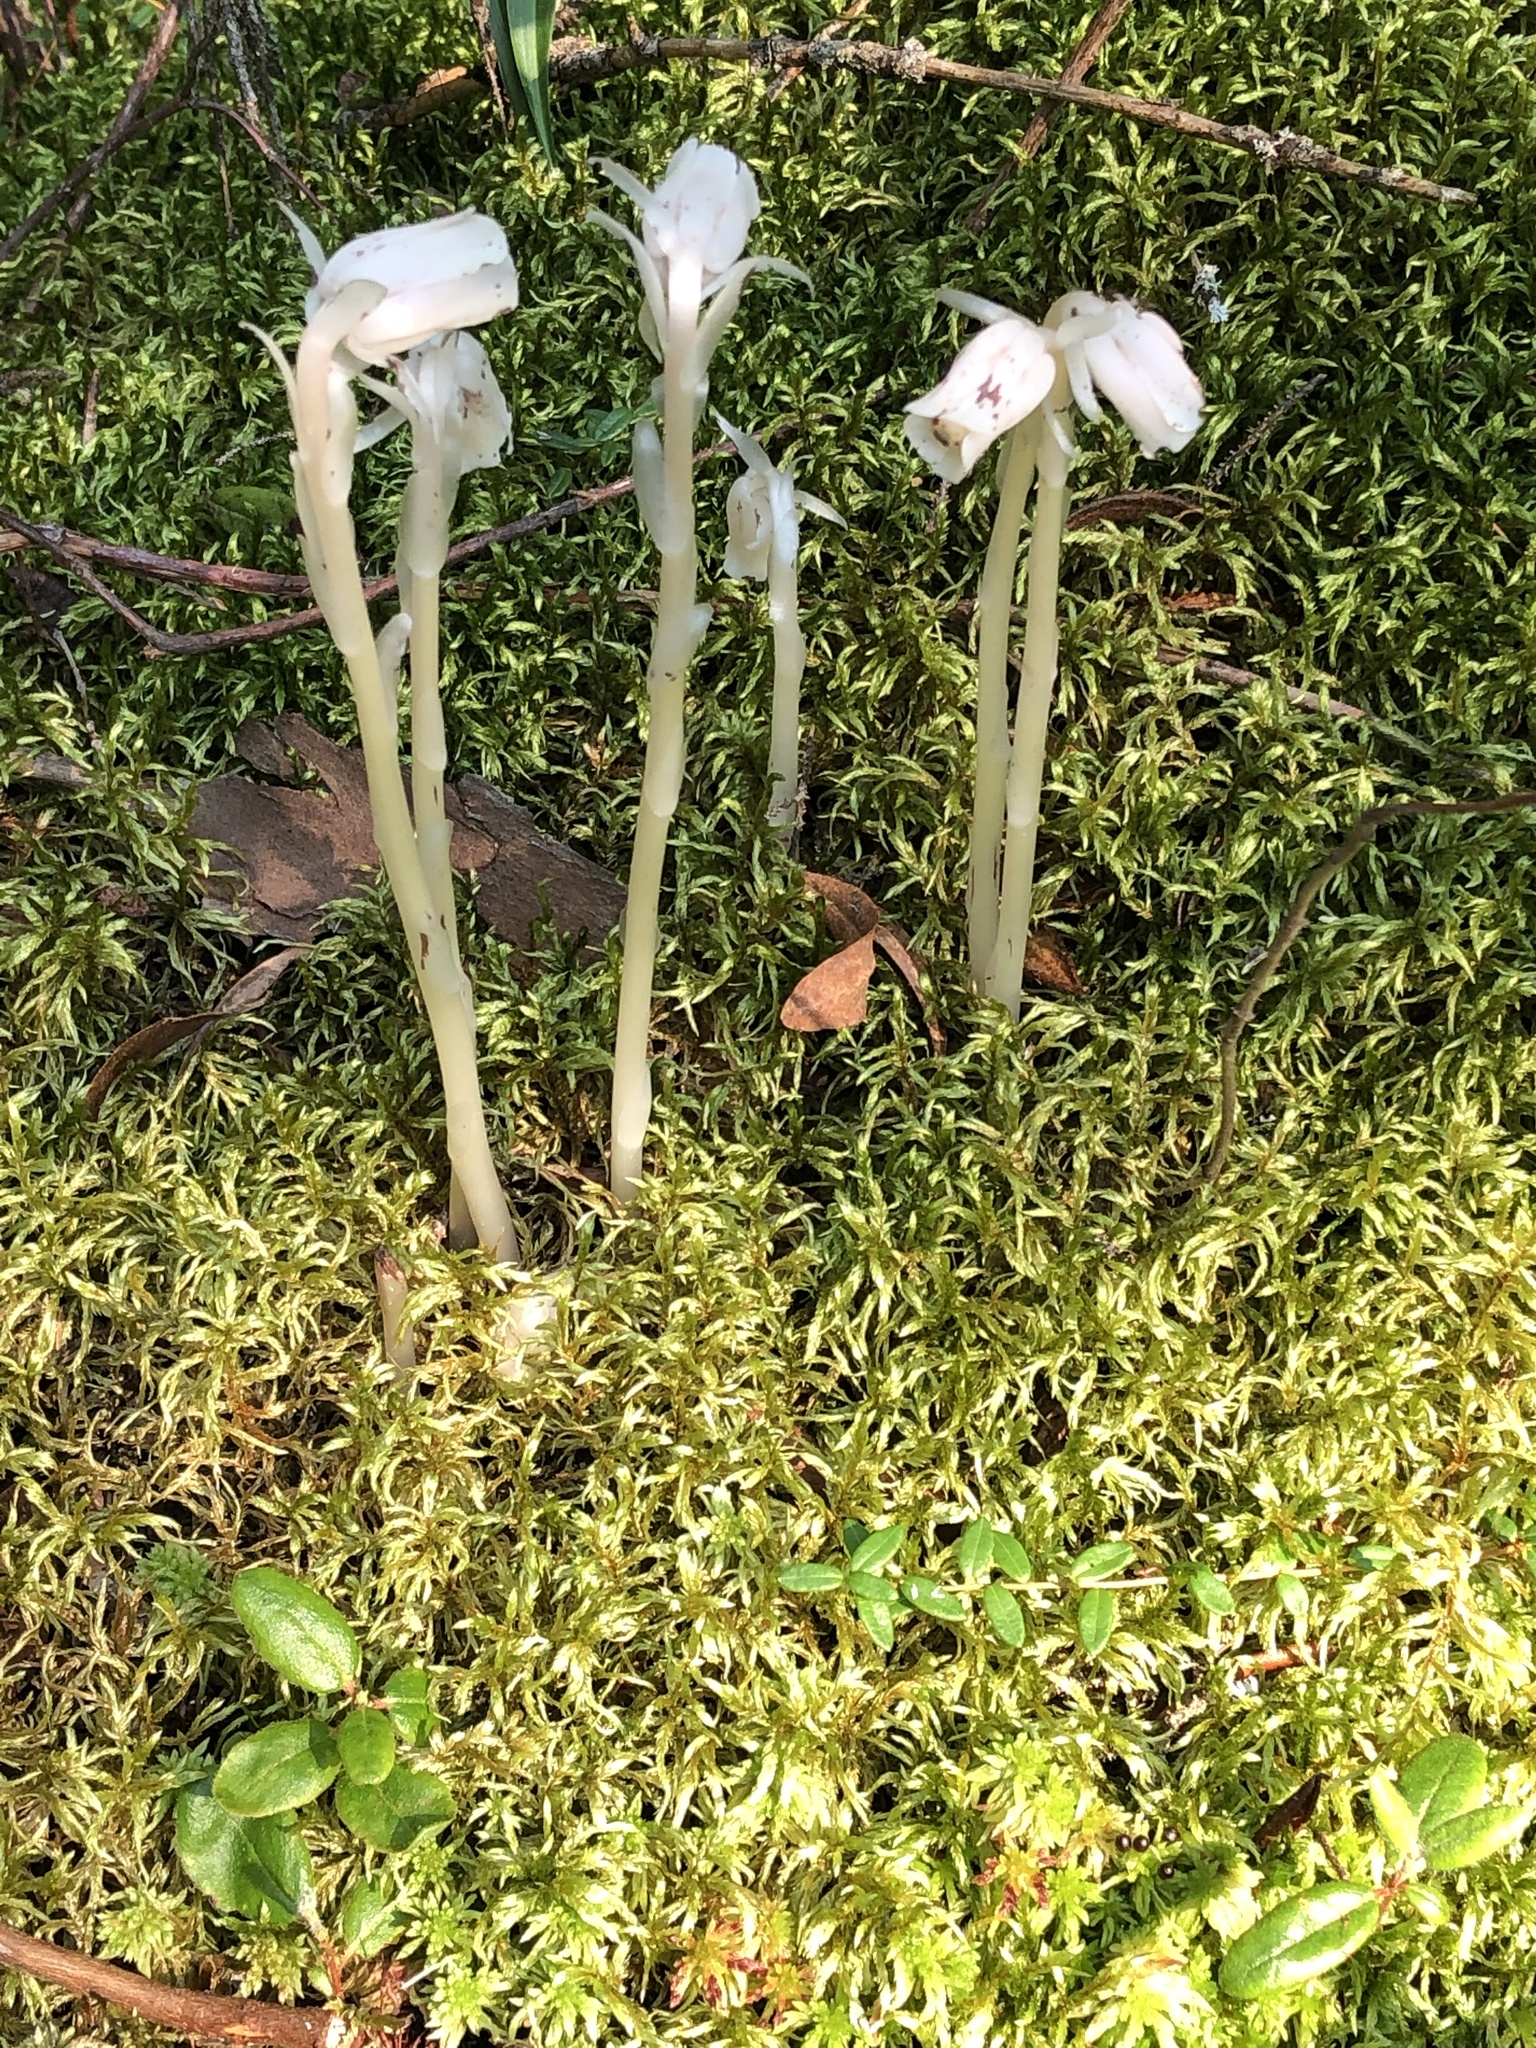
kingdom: Plantae
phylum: Tracheophyta
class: Magnoliopsida
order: Ericales
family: Ericaceae
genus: Monotropa
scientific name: Monotropa uniflora
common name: Convulsion root
